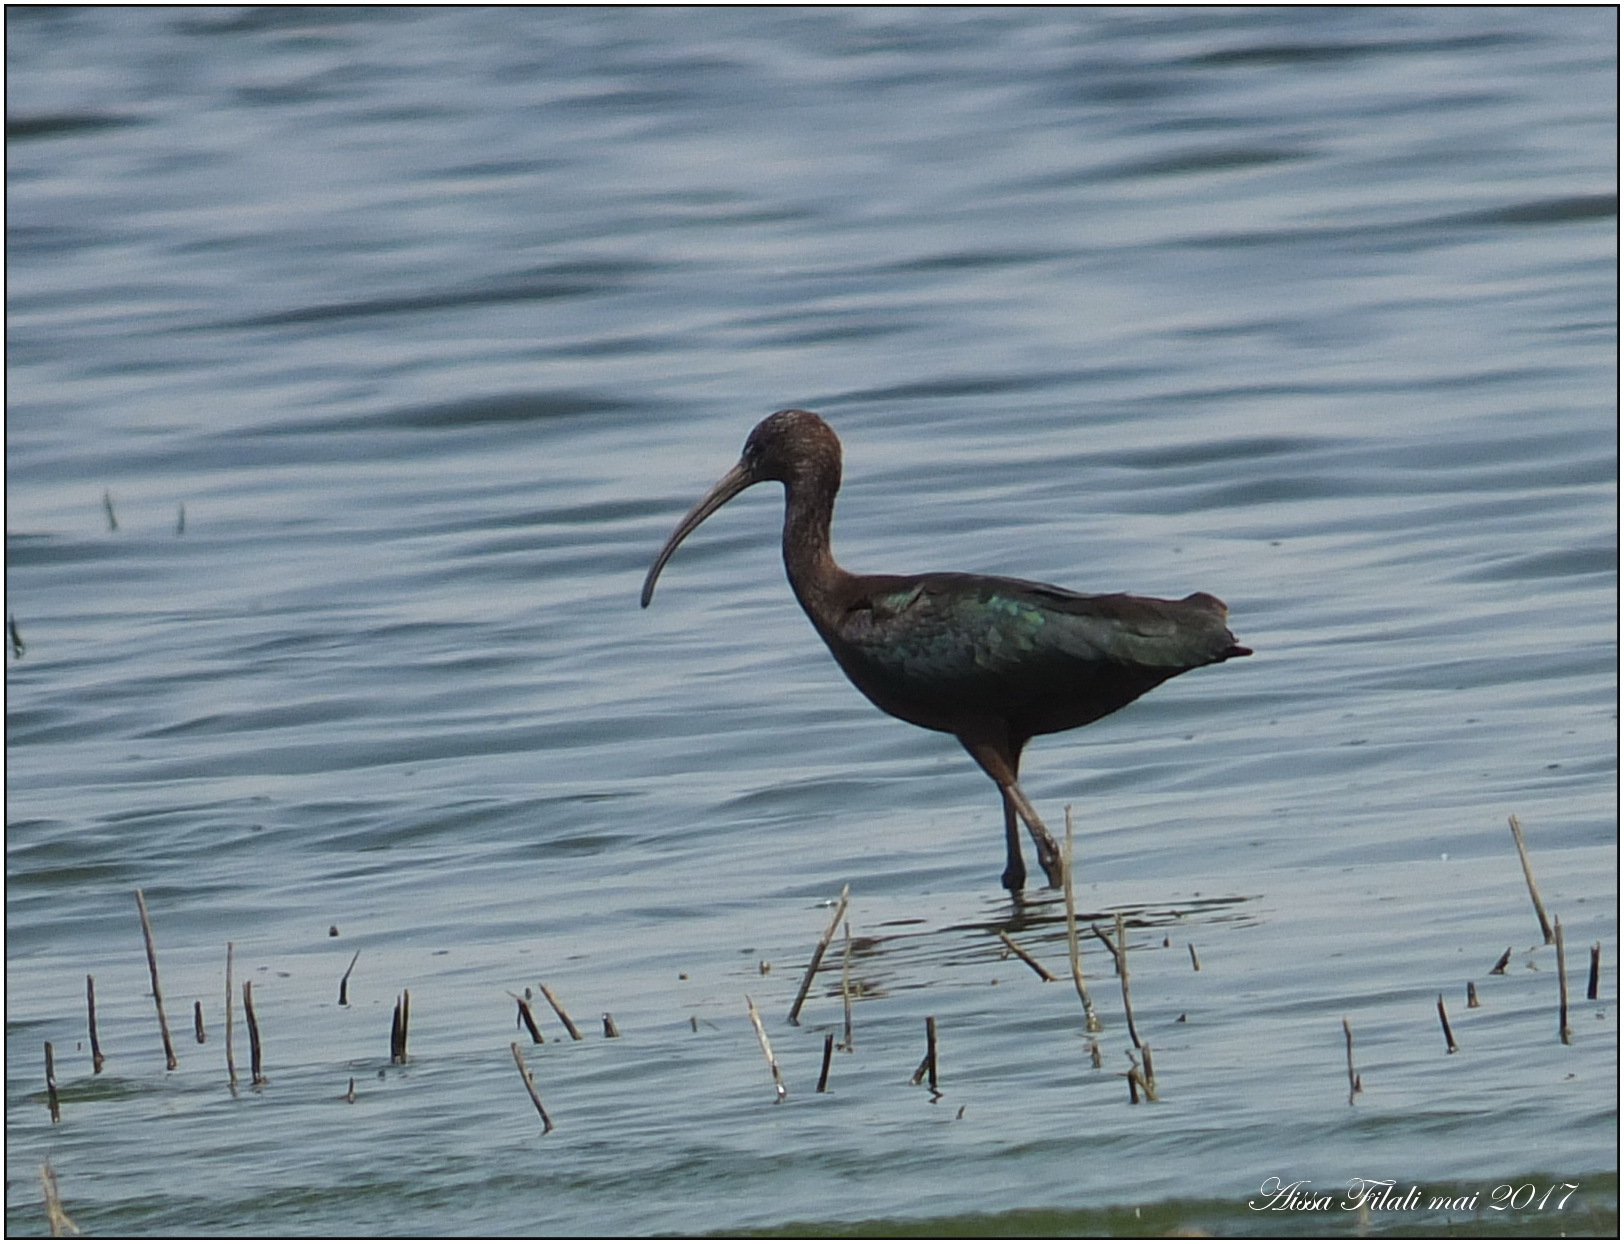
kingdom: Animalia
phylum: Chordata
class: Aves
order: Pelecaniformes
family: Threskiornithidae
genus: Plegadis
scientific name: Plegadis falcinellus
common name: Glossy ibis
